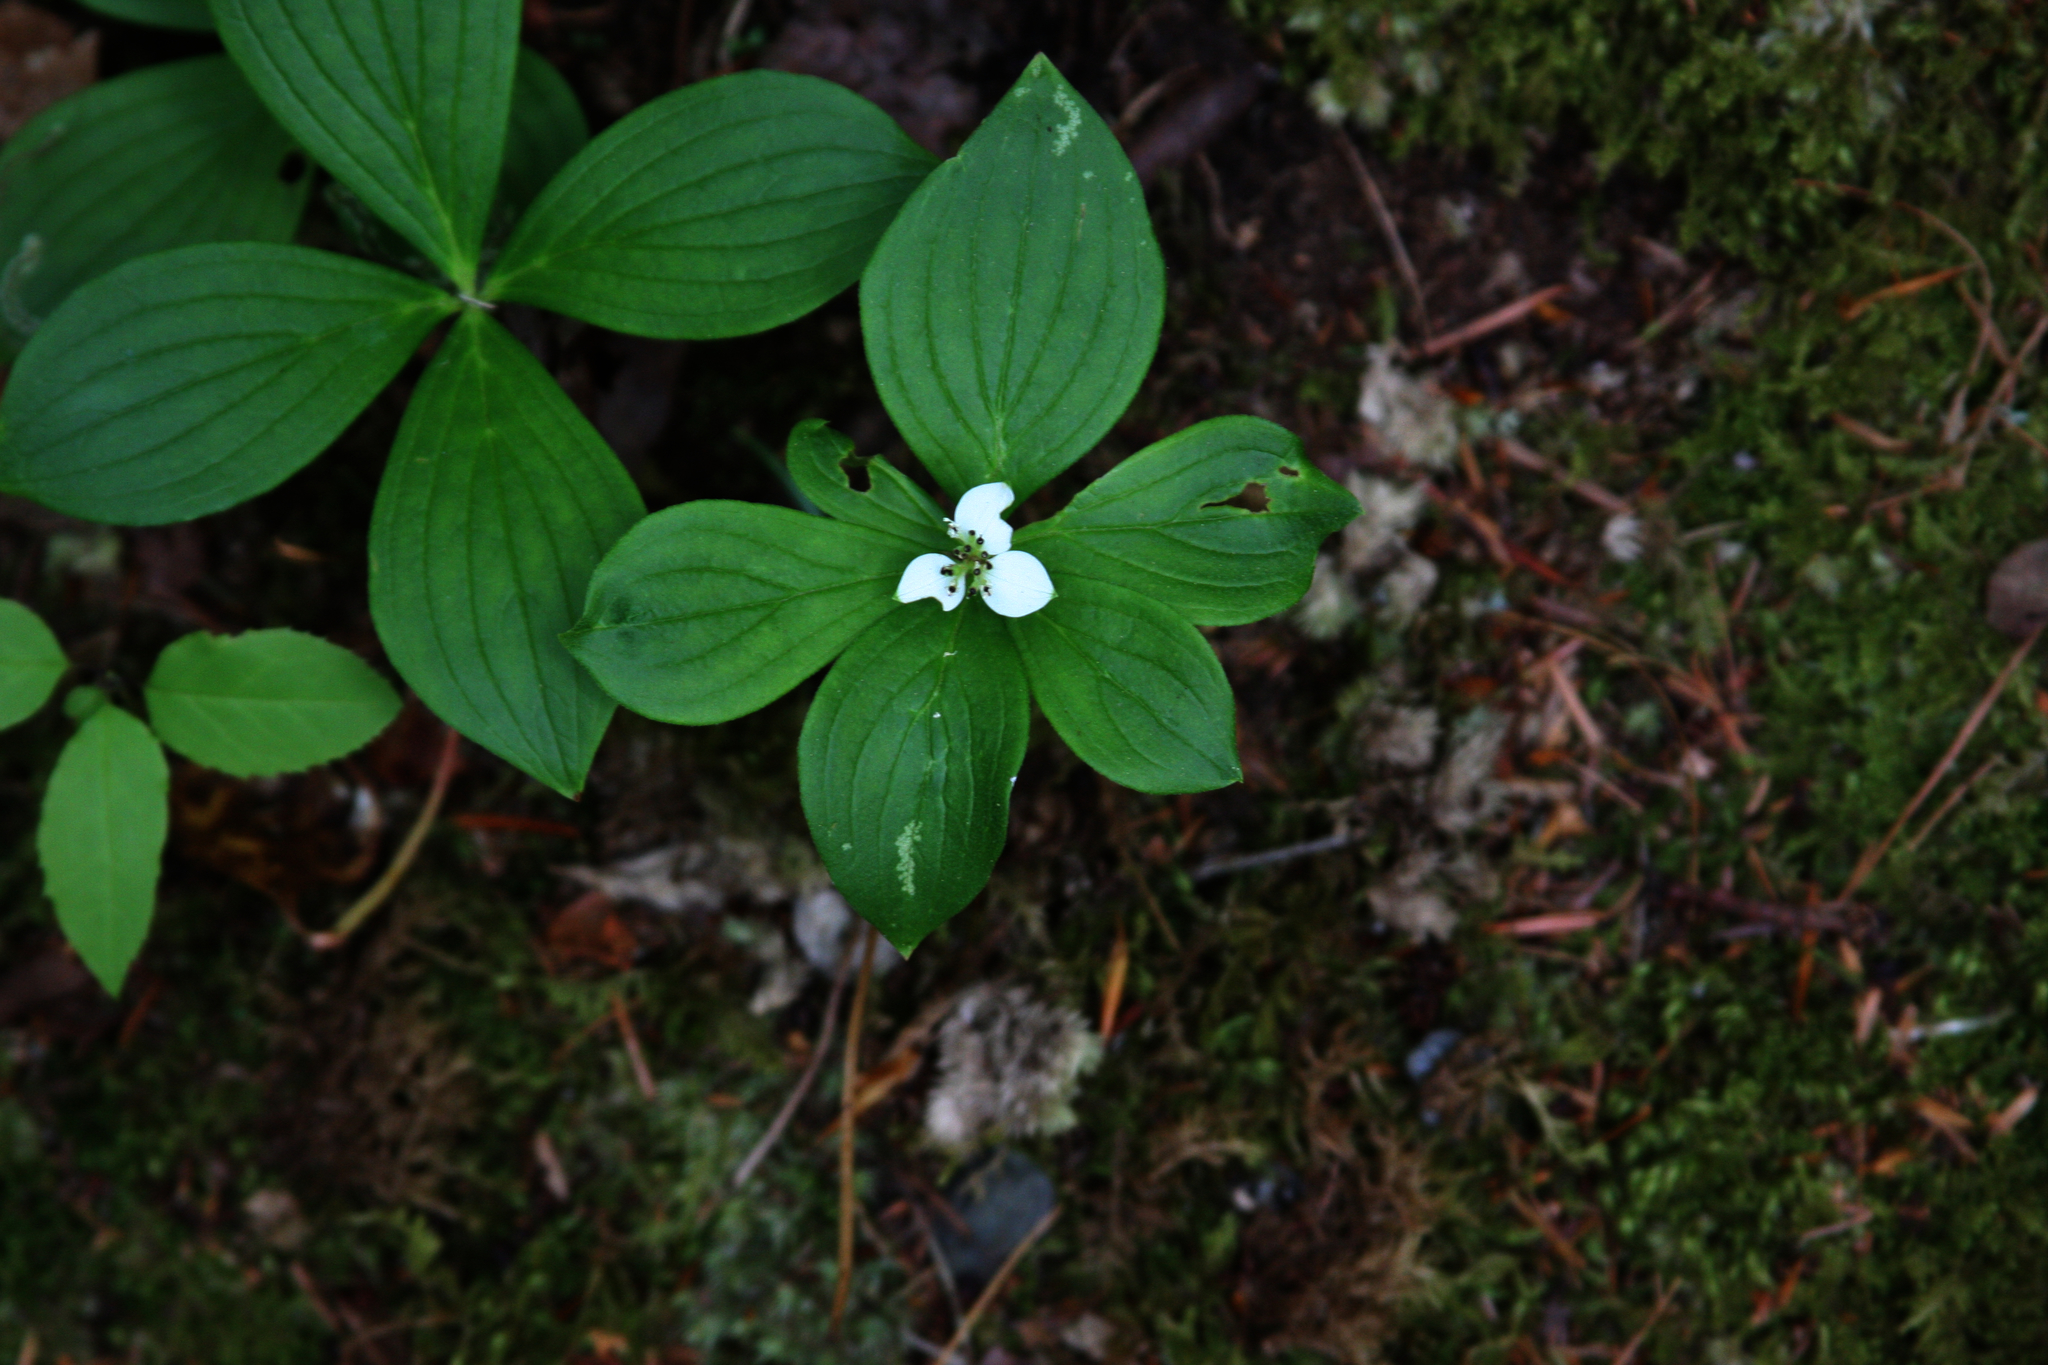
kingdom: Plantae
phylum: Tracheophyta
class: Magnoliopsida
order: Cornales
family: Cornaceae
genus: Cornus
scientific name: Cornus canadensis
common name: Creeping dogwood
